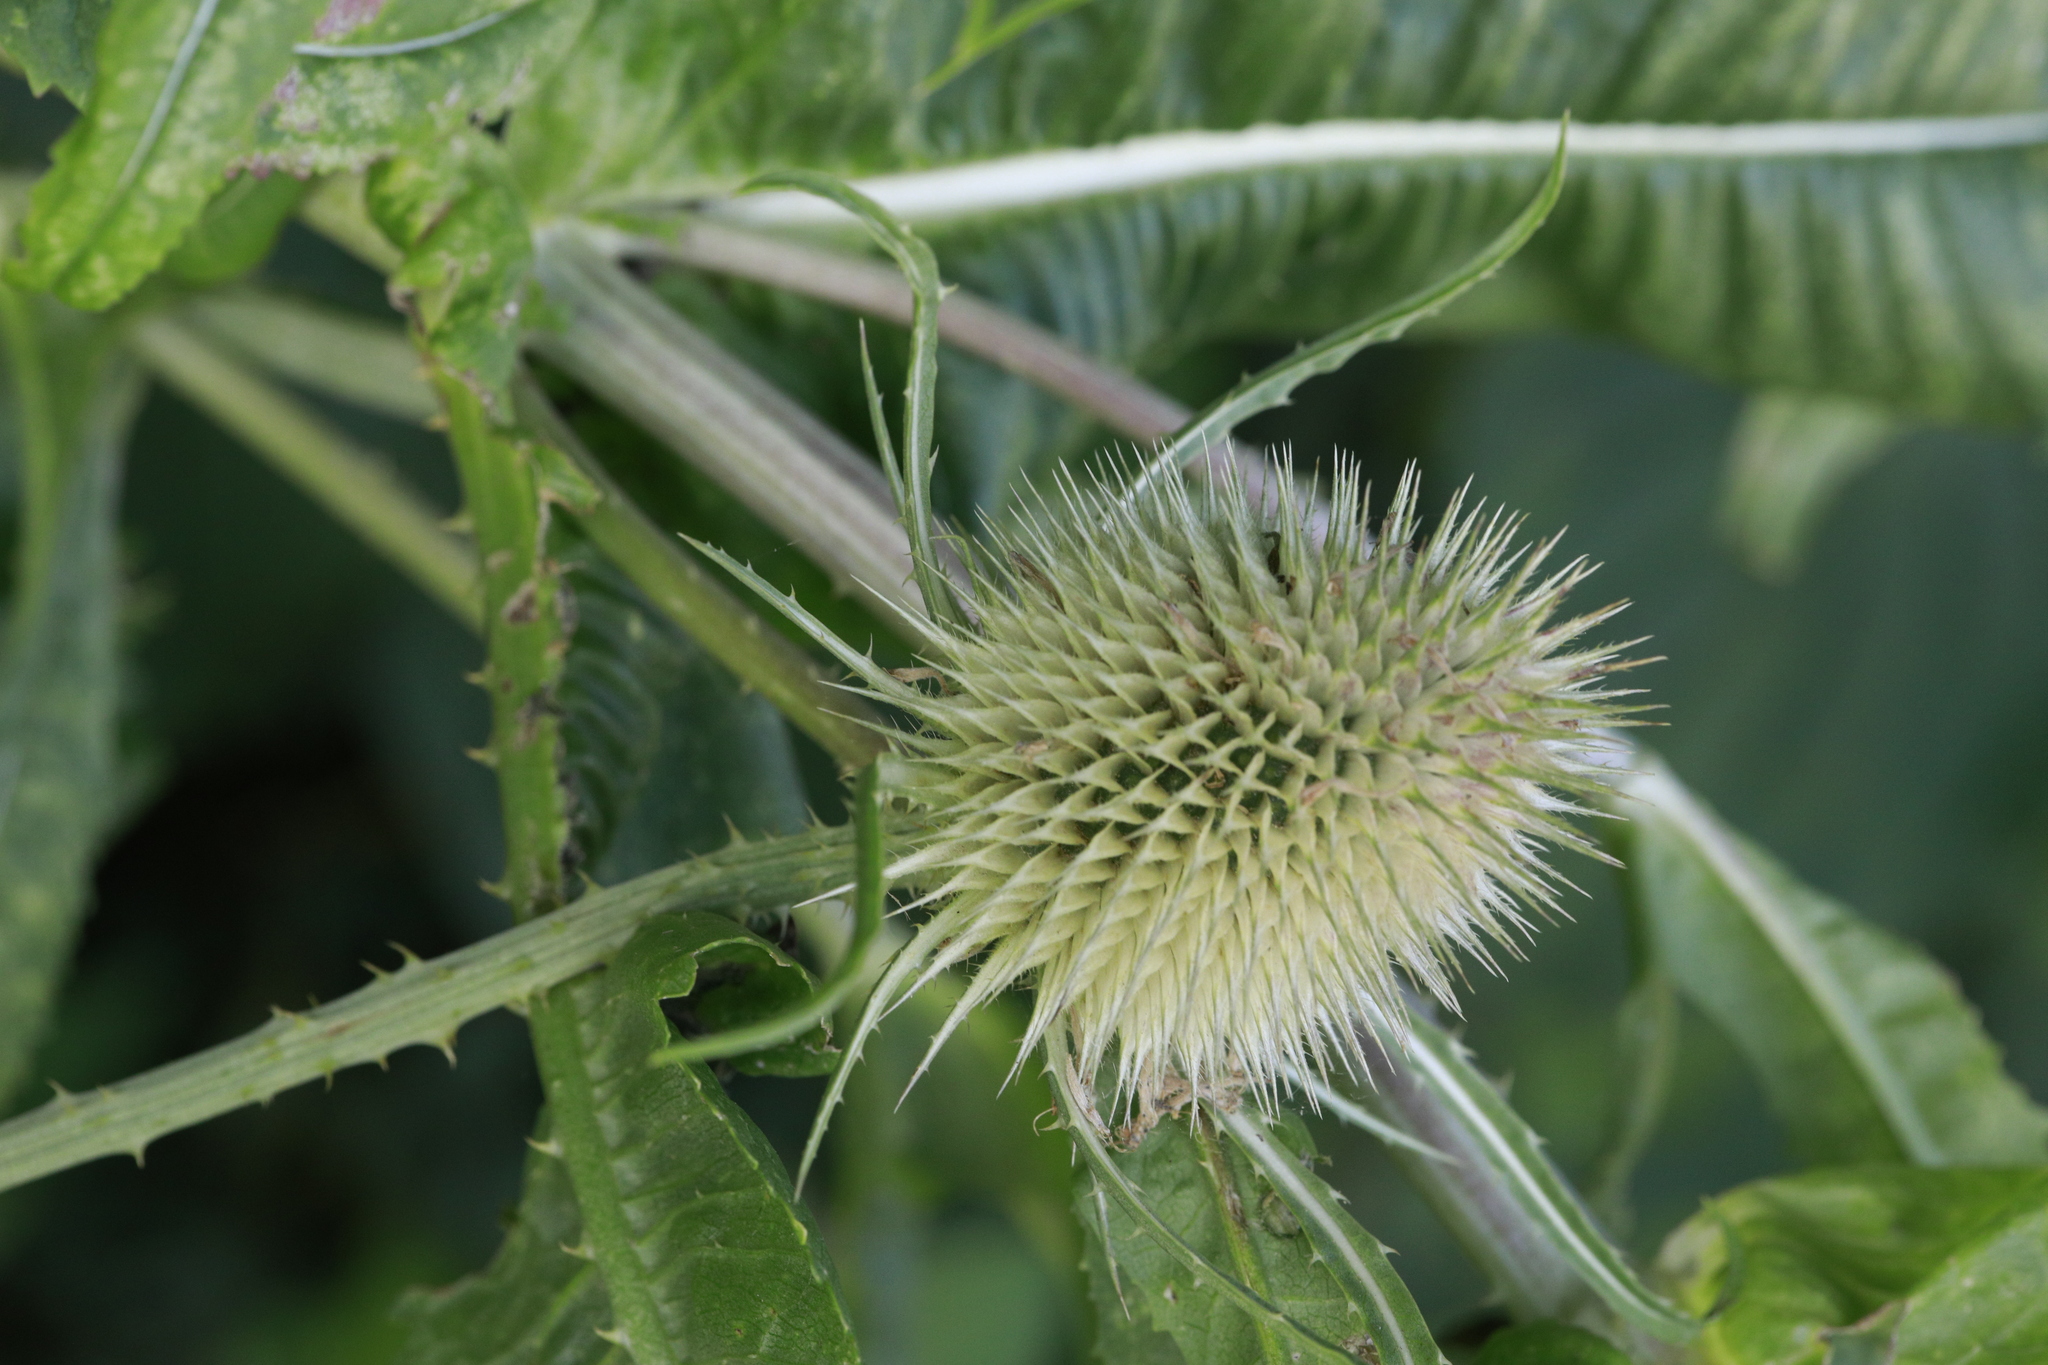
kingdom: Plantae
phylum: Tracheophyta
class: Magnoliopsida
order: Dipsacales
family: Caprifoliaceae
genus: Dipsacus
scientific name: Dipsacus fullonum
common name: Teasel
